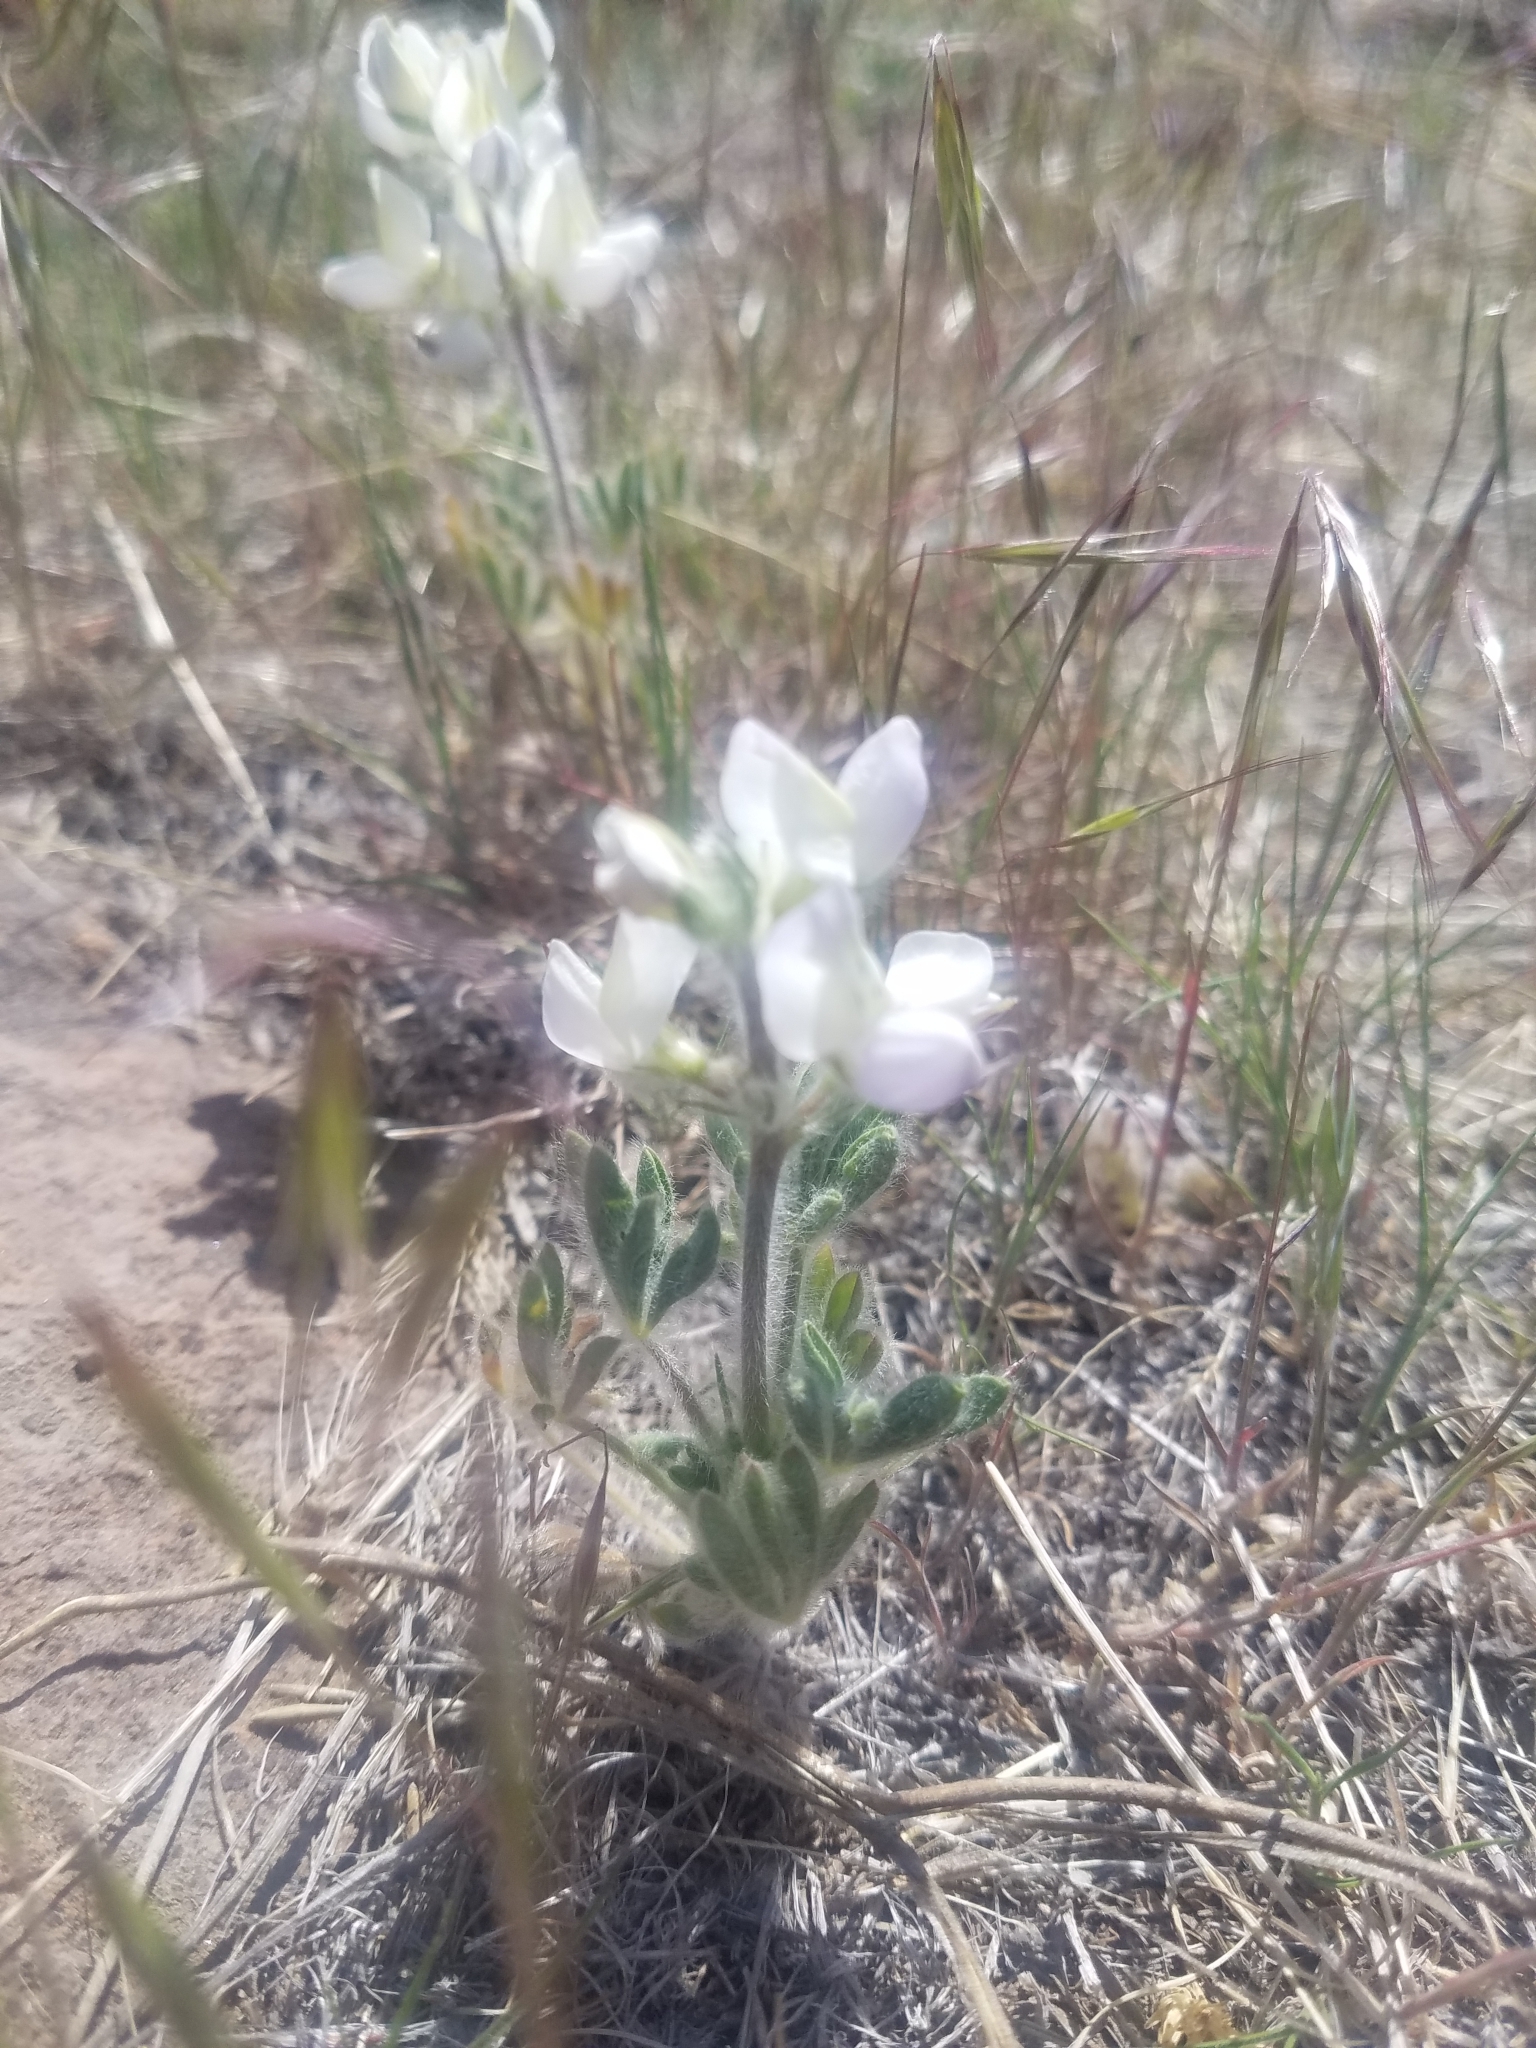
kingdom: Plantae
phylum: Tracheophyta
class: Magnoliopsida
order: Fabales
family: Fabaceae
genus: Lupinus
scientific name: Lupinus malacophyllus
